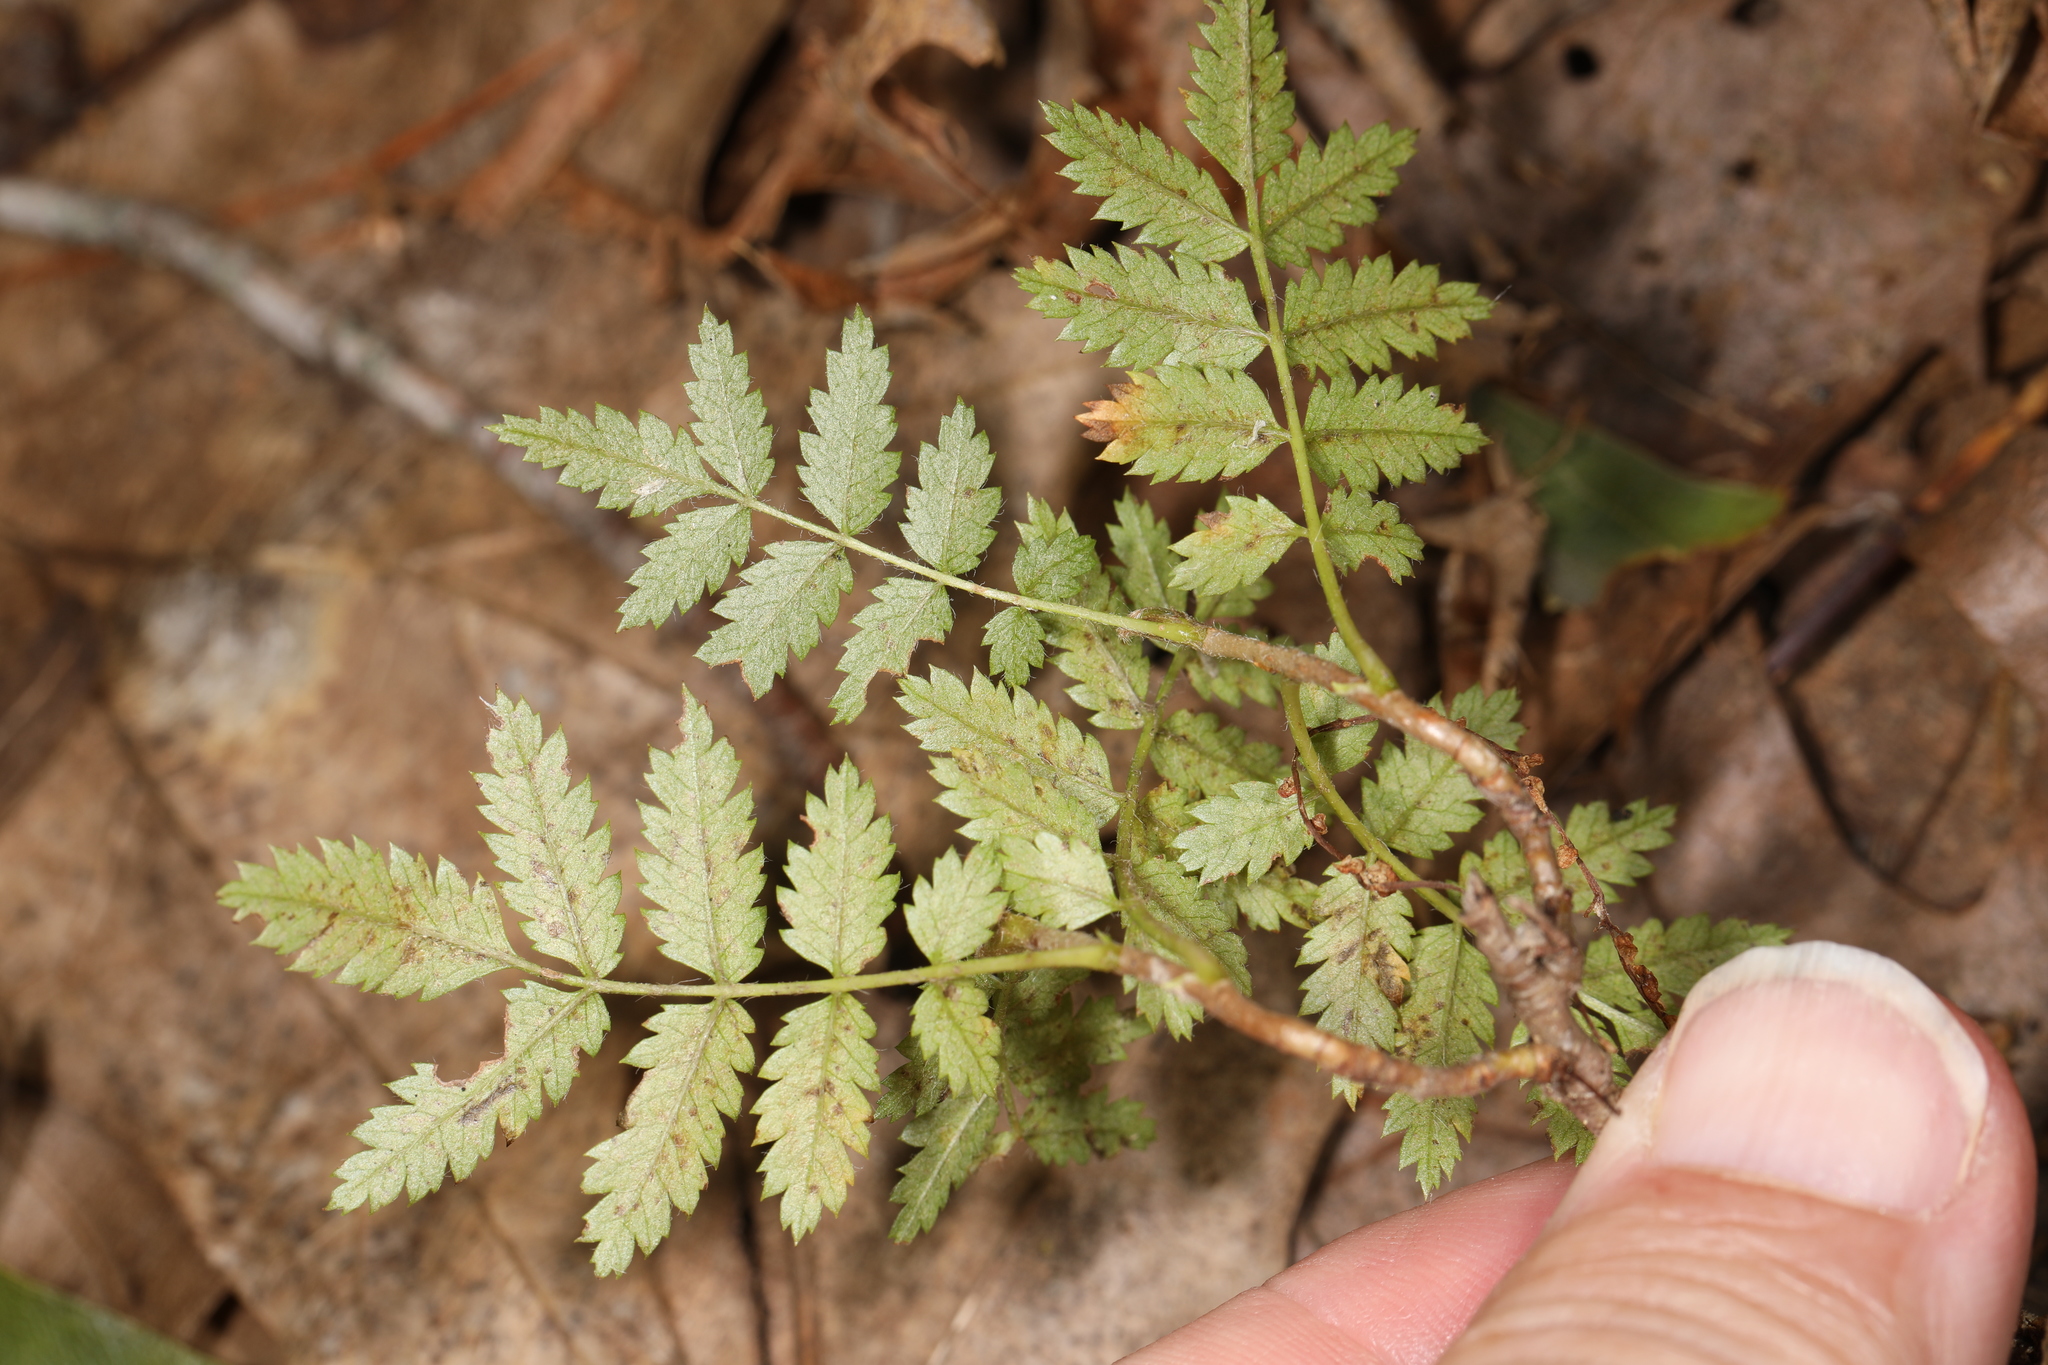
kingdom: Plantae
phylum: Tracheophyta
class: Magnoliopsida
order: Rosales
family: Rosaceae
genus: Sorbus
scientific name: Sorbus americana
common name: American mountain-ash
